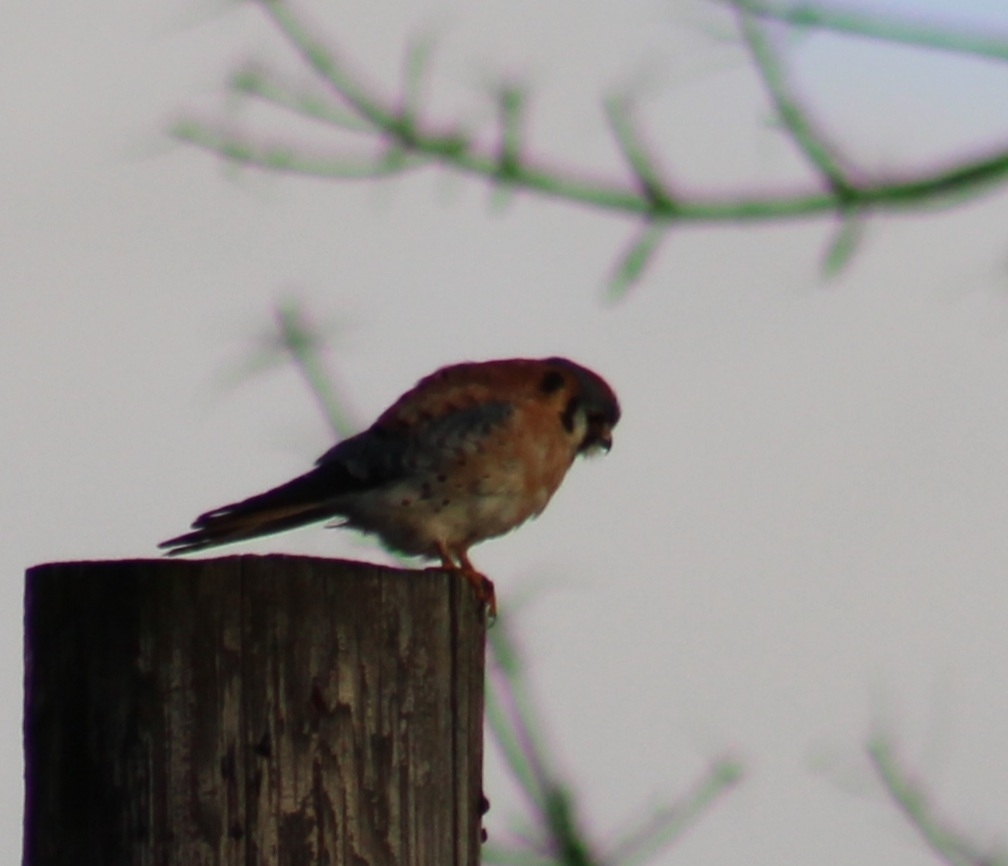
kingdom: Animalia
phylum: Chordata
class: Aves
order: Falconiformes
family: Falconidae
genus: Falco
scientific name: Falco sparverius
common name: American kestrel
